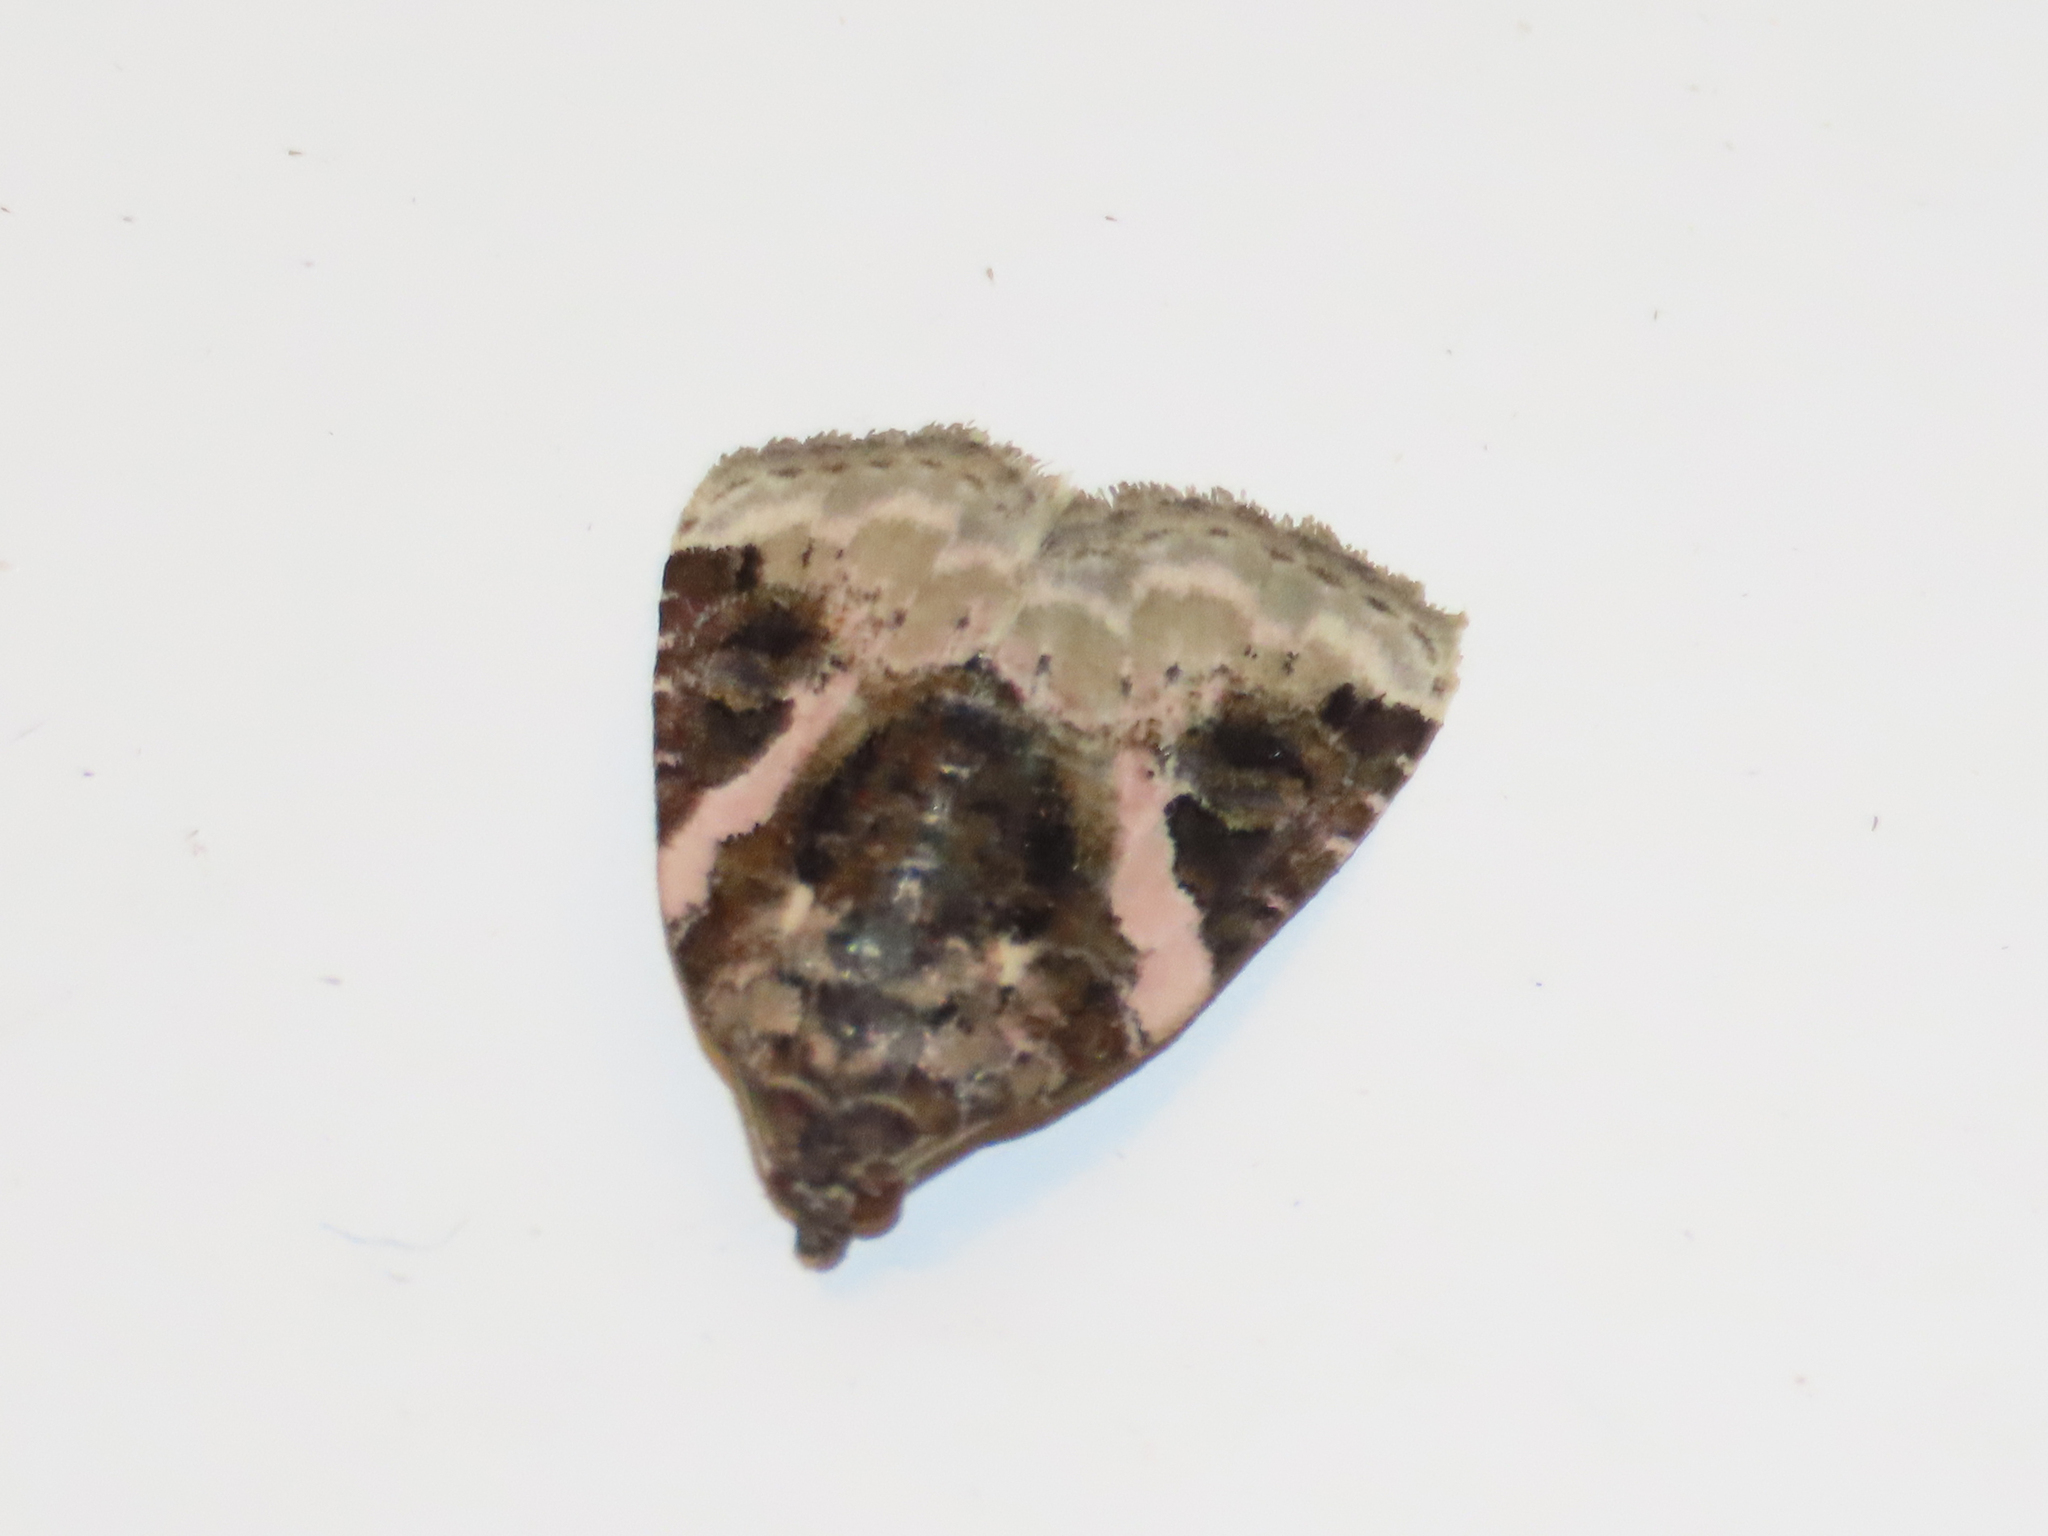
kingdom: Animalia
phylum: Arthropoda
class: Insecta
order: Lepidoptera
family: Noctuidae
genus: Pseudeustrotia
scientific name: Pseudeustrotia carneola
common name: Pink-barred lithacodia moth
